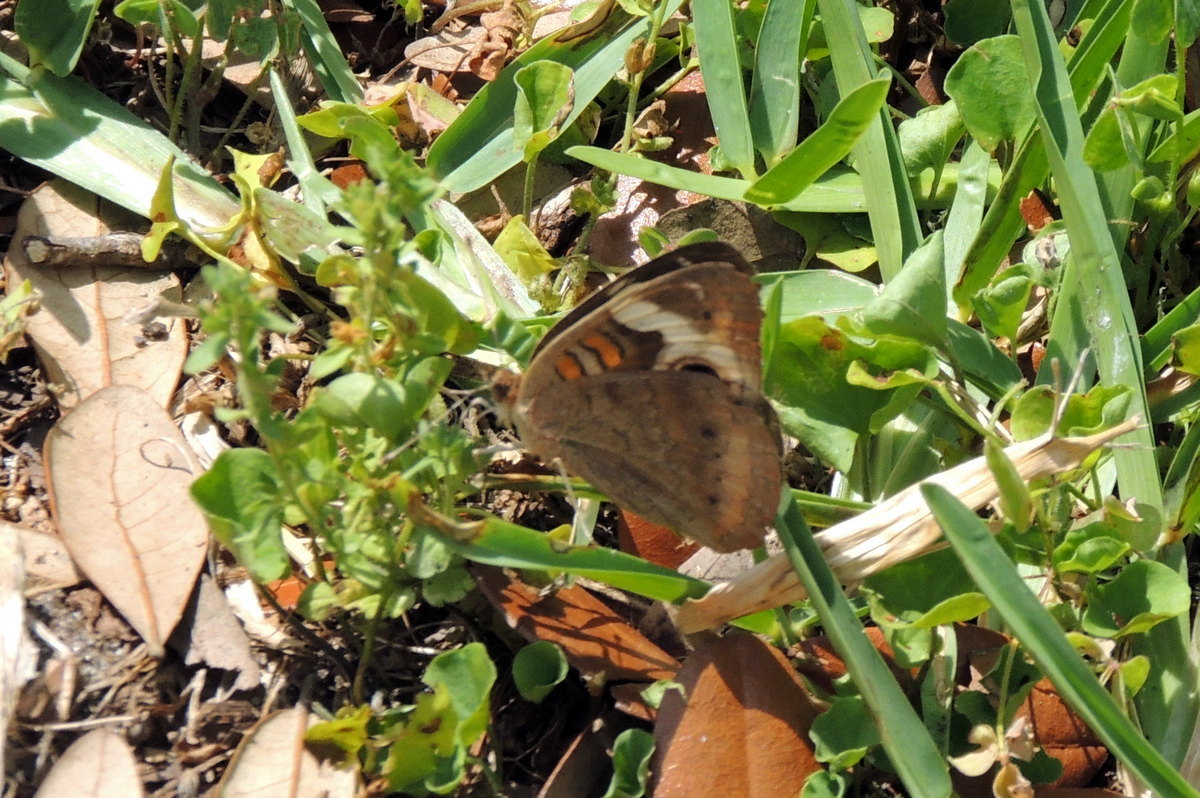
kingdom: Animalia
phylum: Arthropoda
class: Insecta
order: Lepidoptera
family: Nymphalidae
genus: Junonia
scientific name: Junonia coenia
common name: Common buckeye
